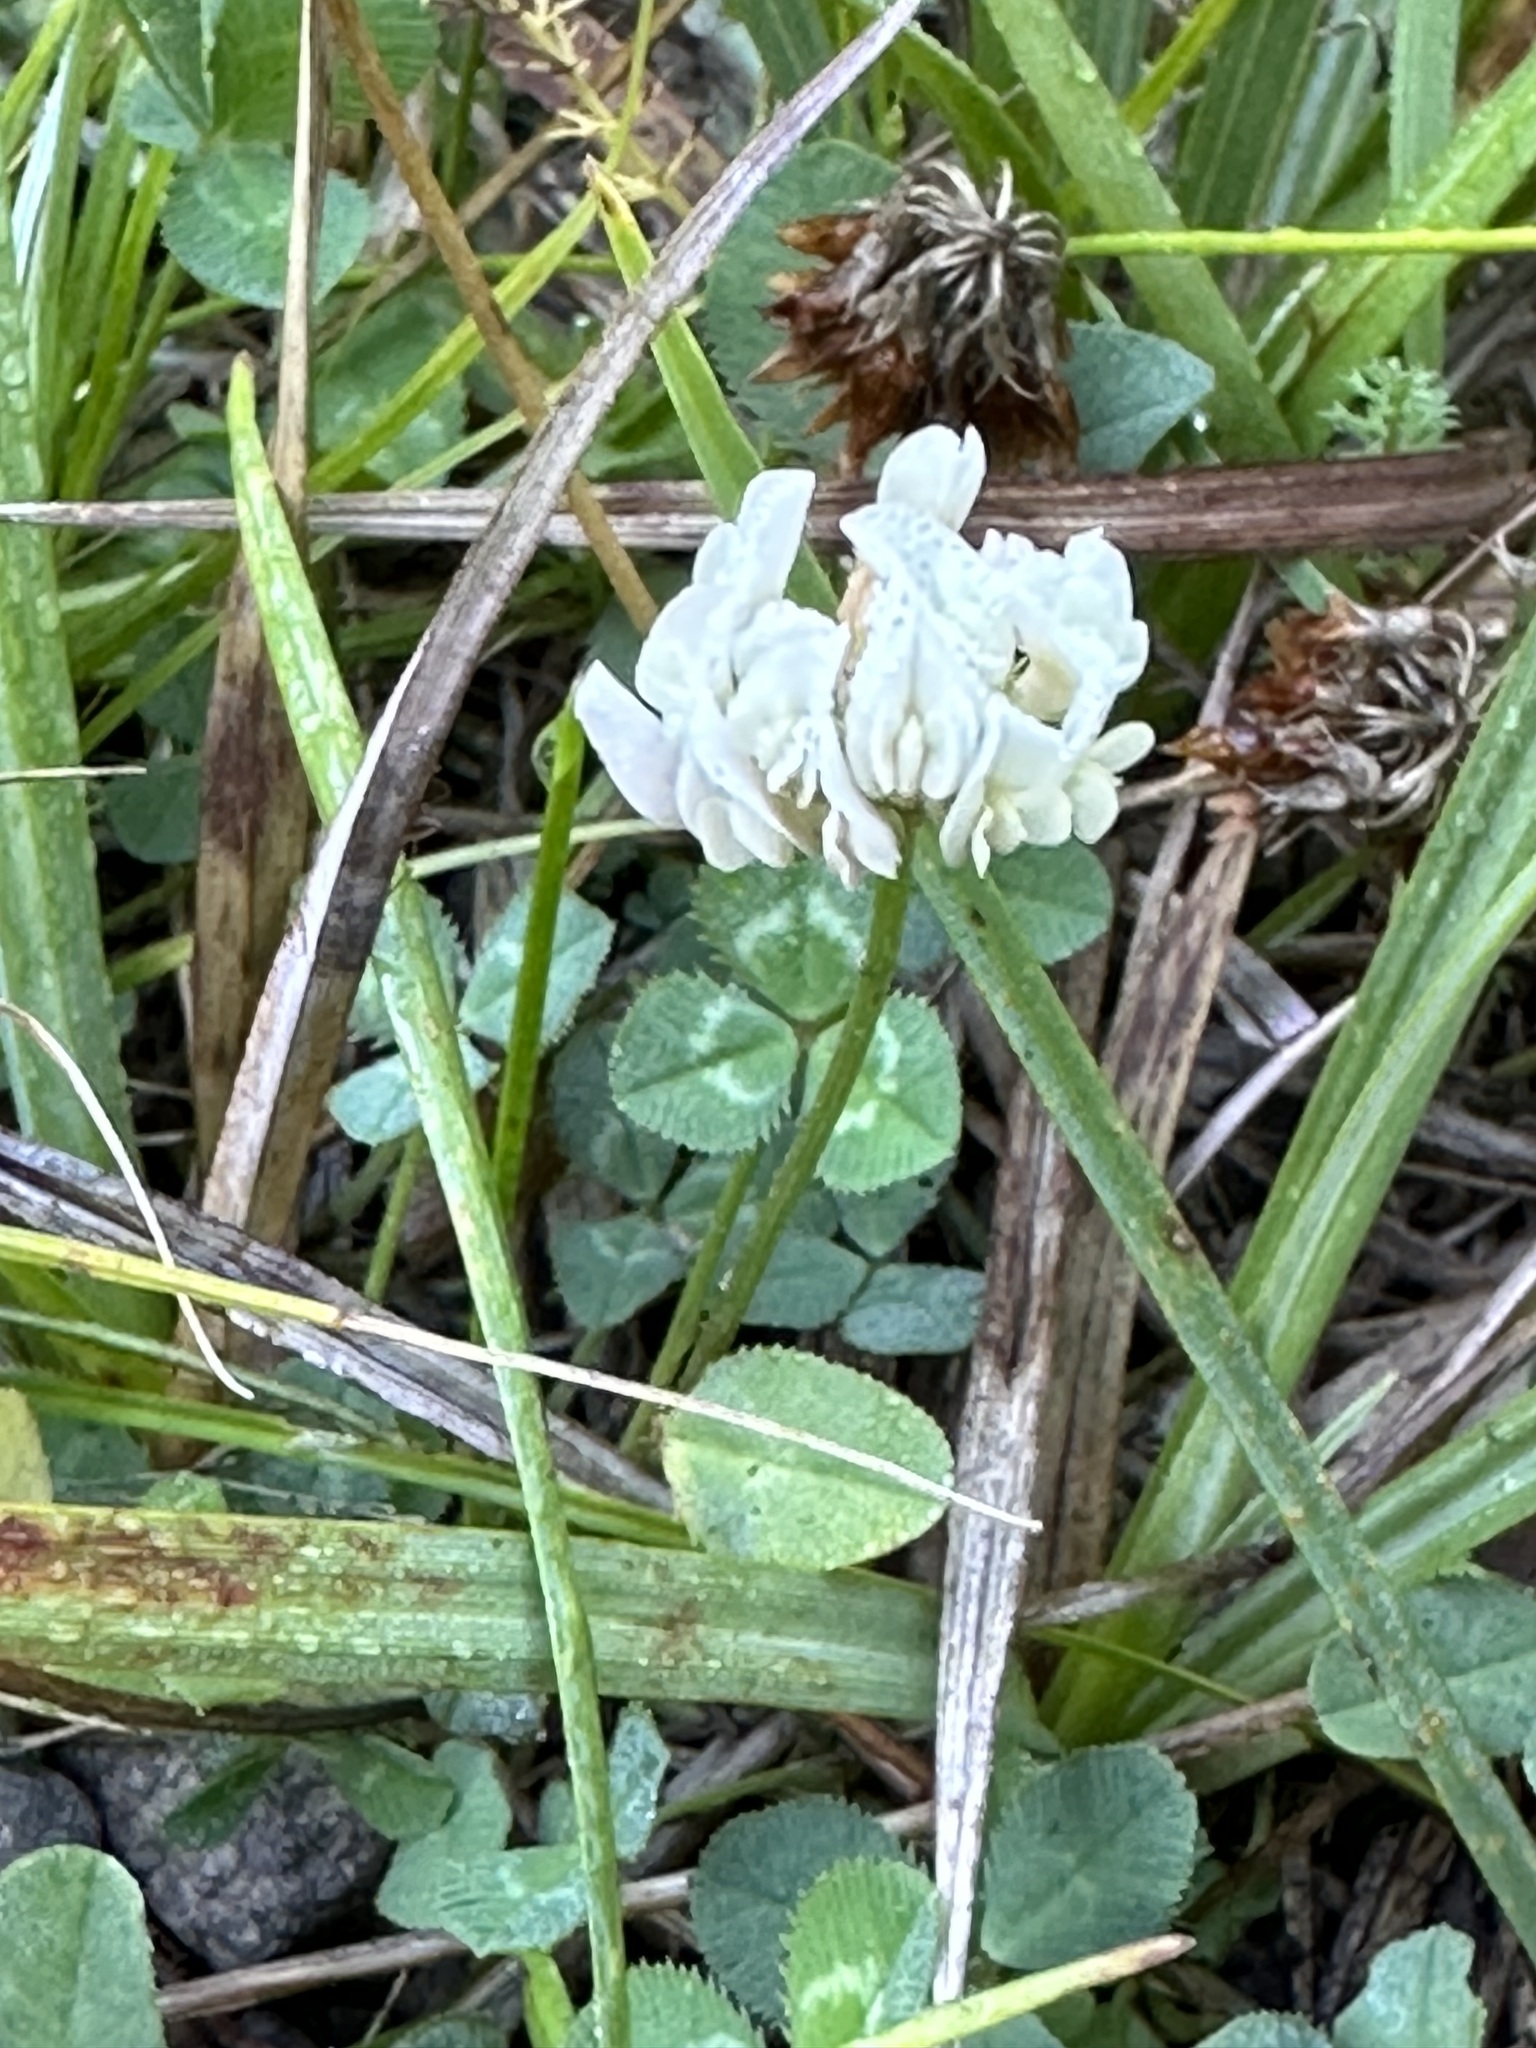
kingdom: Plantae
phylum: Tracheophyta
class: Magnoliopsida
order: Fabales
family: Fabaceae
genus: Trifolium
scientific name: Trifolium repens
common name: White clover
